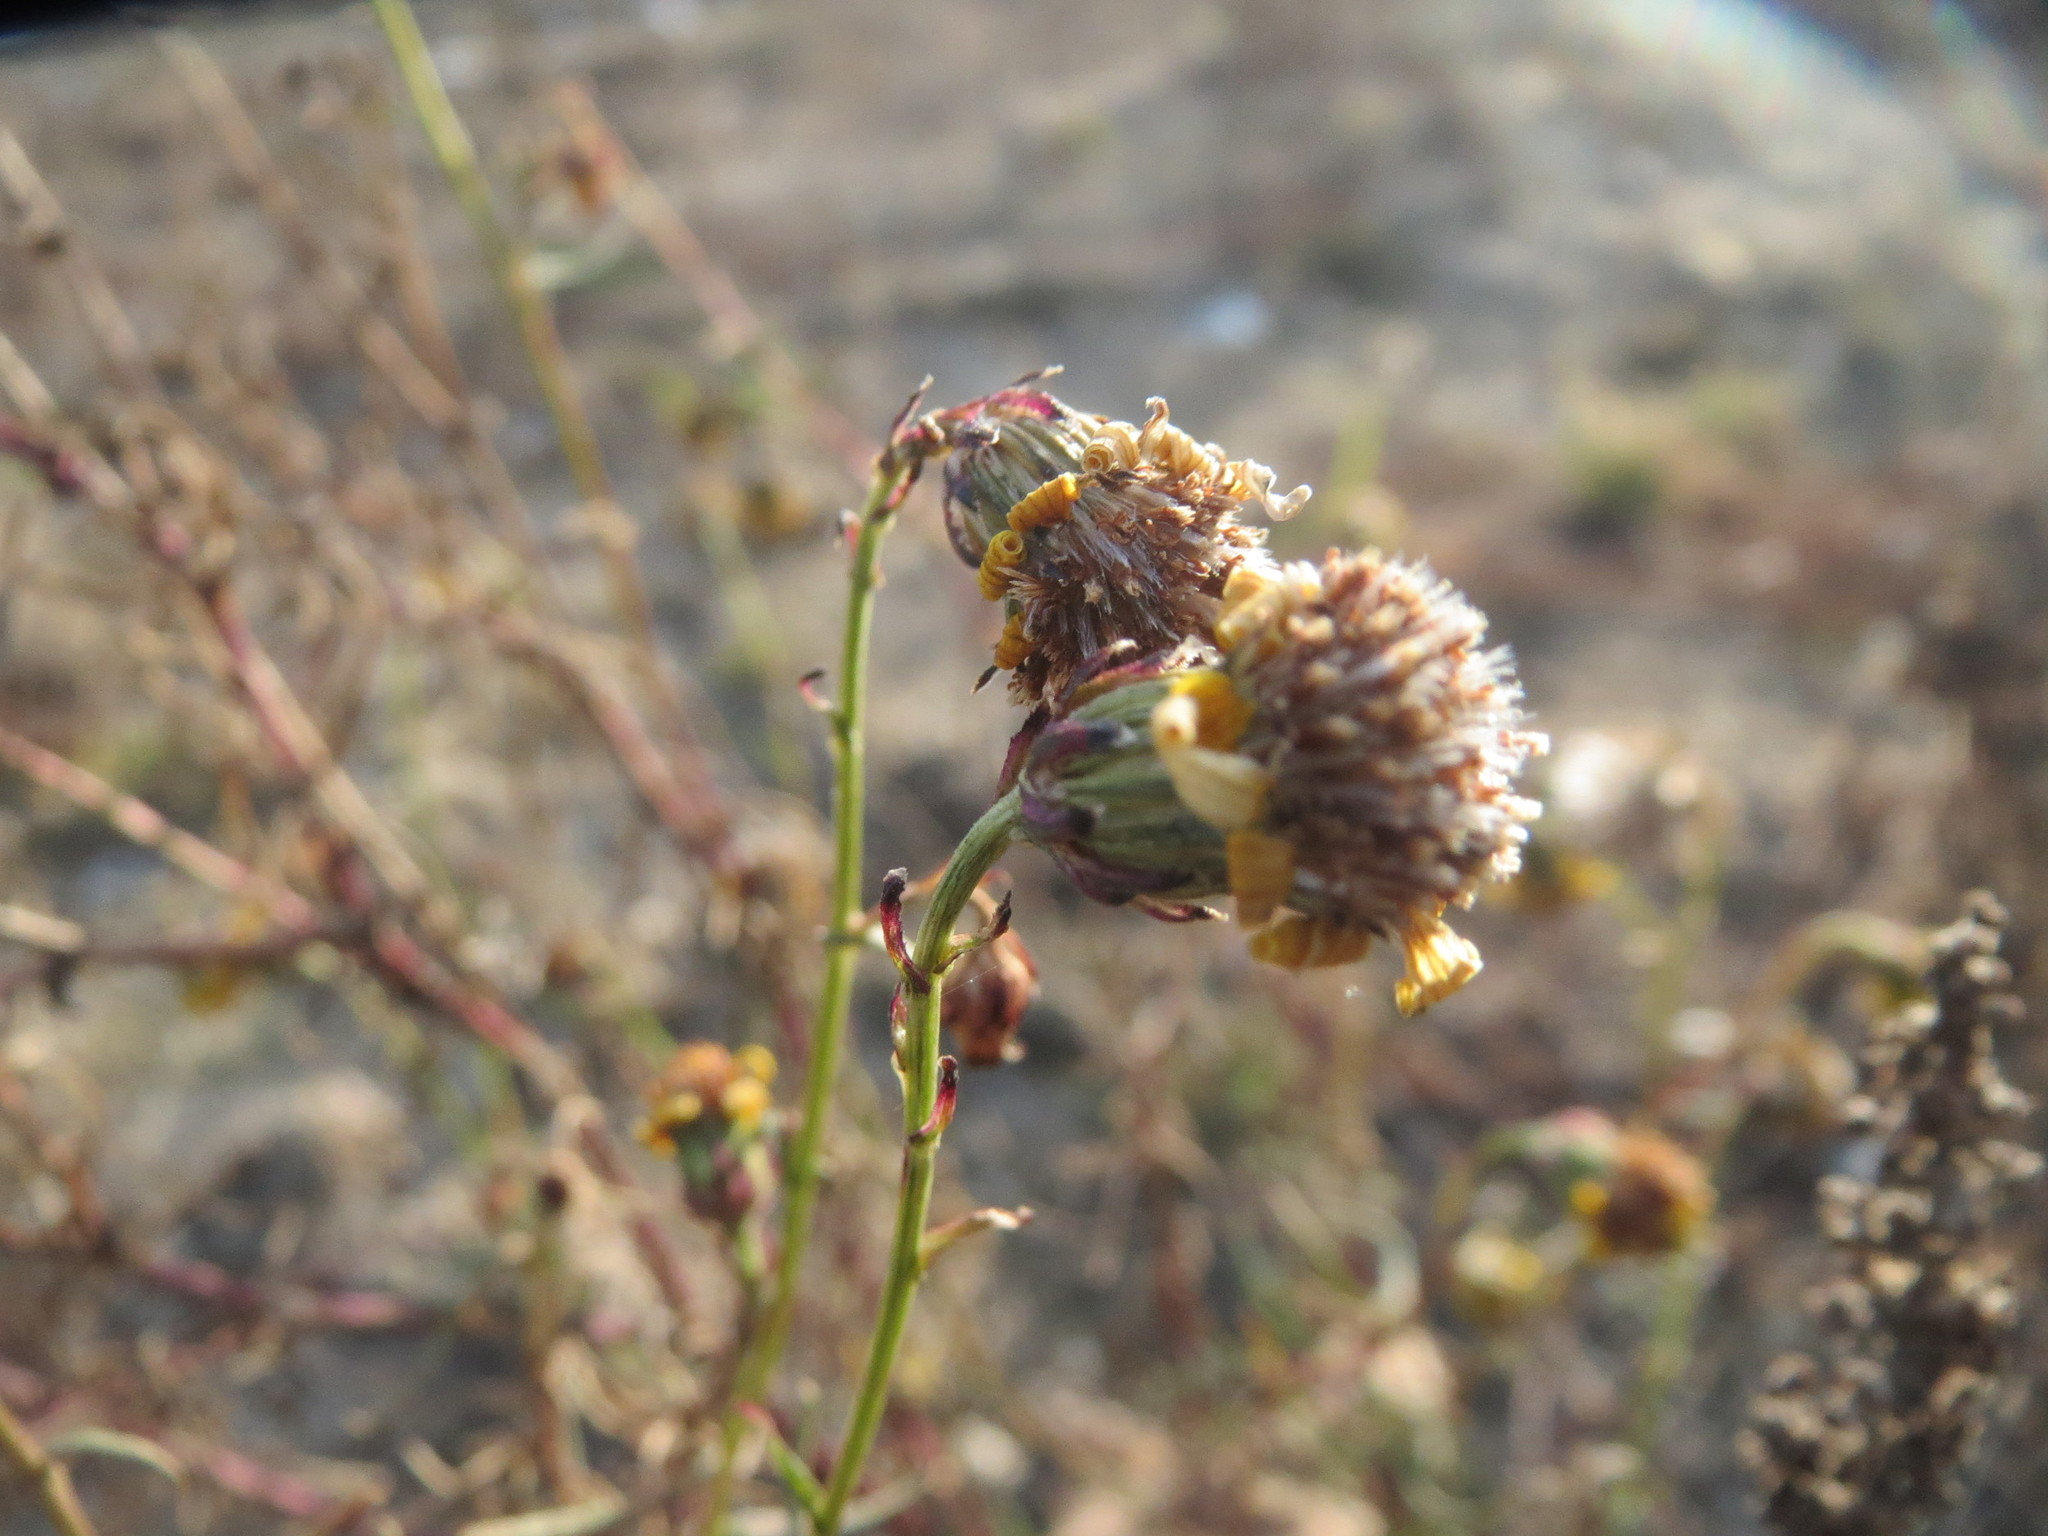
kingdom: Plantae
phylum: Tracheophyta
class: Magnoliopsida
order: Asterales
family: Asteraceae
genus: Senecio
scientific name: Senecio inaequidens
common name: Narrow-leaved ragwort
